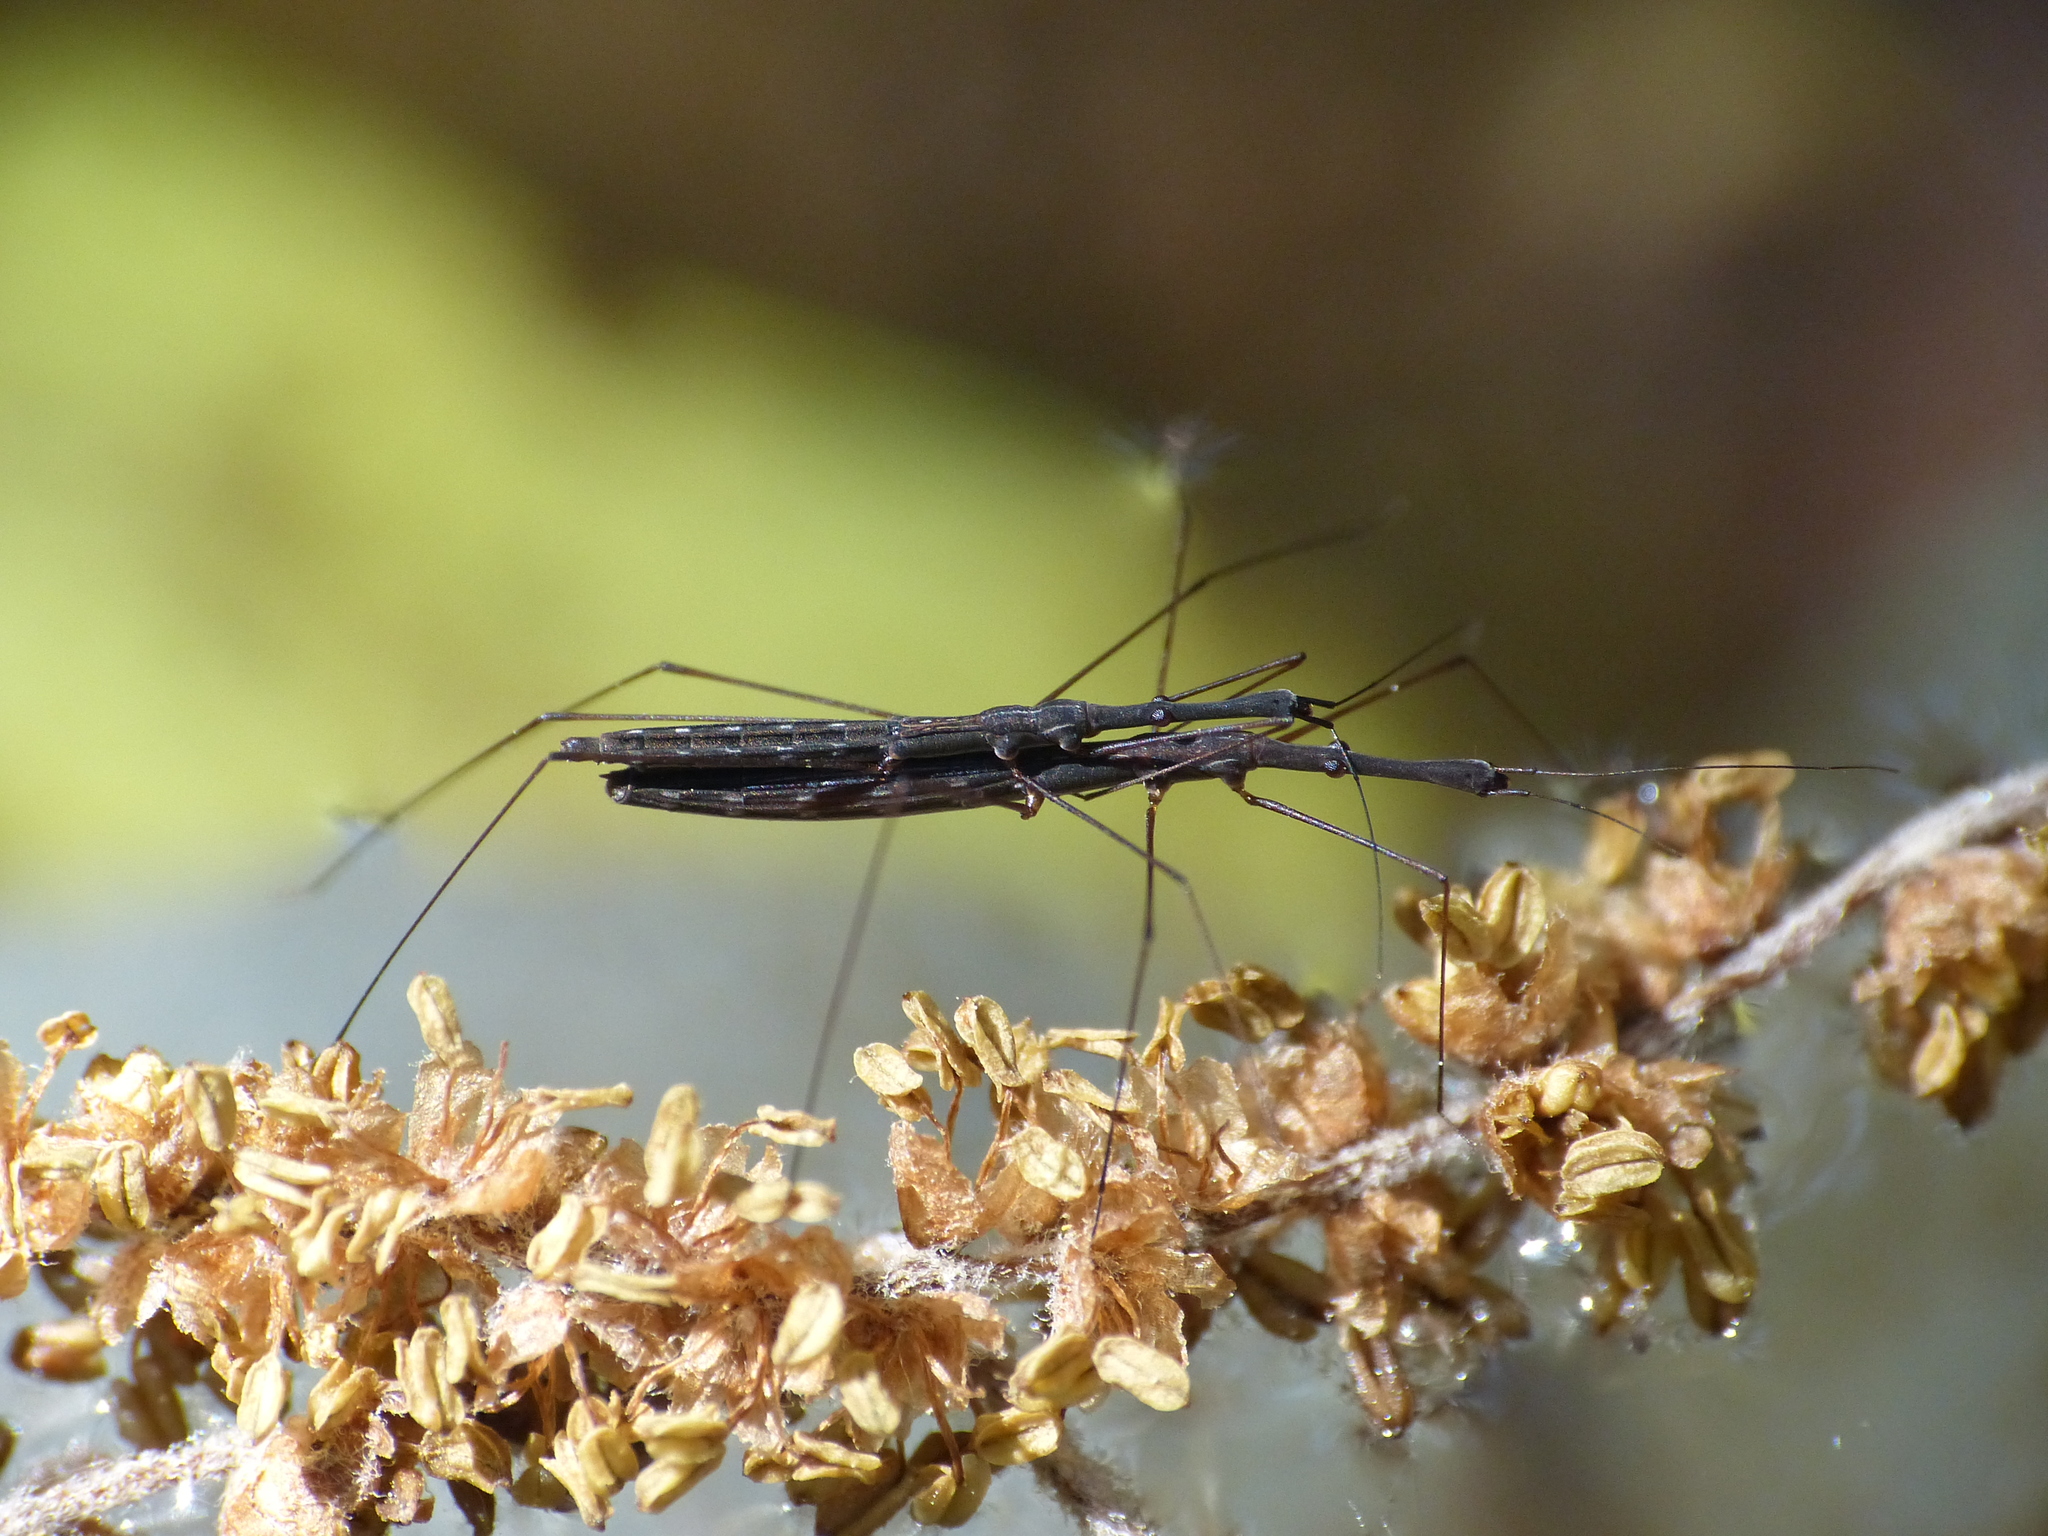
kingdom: Animalia
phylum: Arthropoda
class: Insecta
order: Hemiptera
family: Hydrometridae
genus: Hydrometra
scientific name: Hydrometra stagnorum
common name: Water measurer
